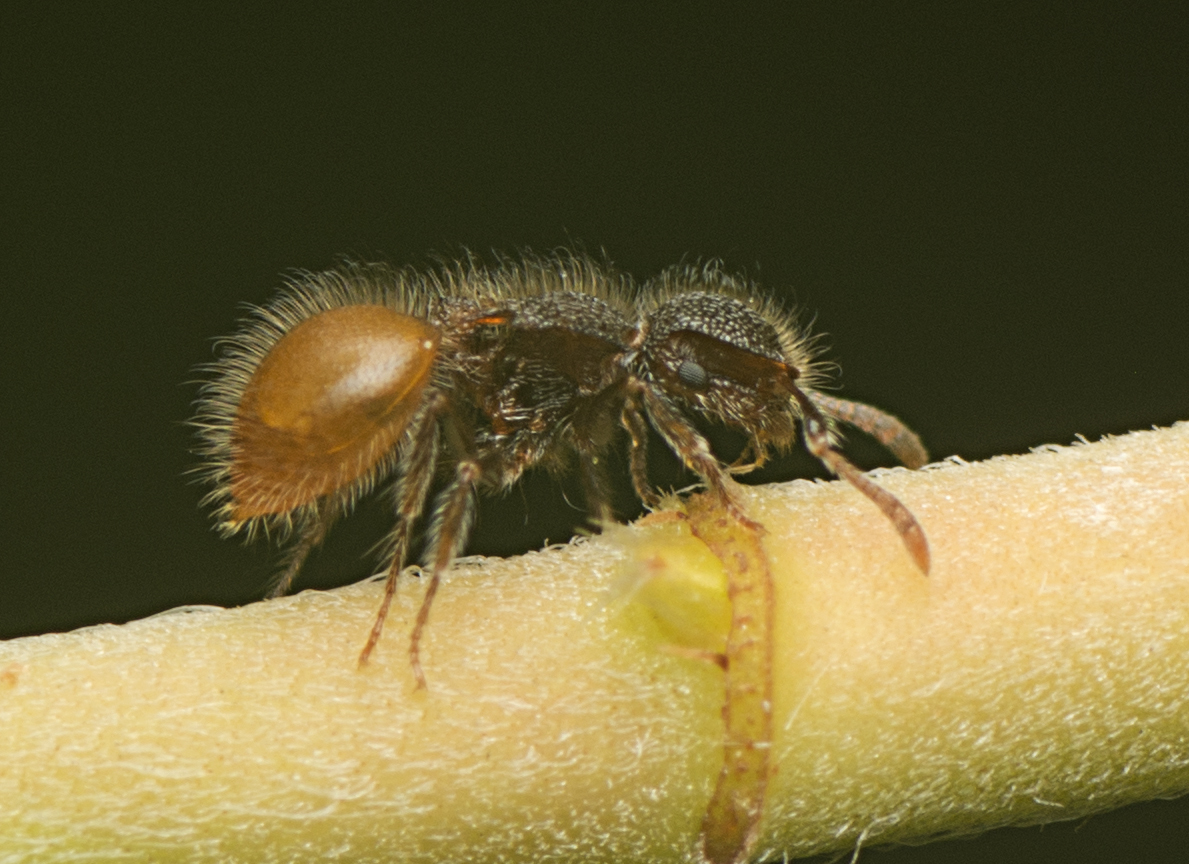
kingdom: Animalia
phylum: Arthropoda
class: Insecta
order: Hymenoptera
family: Formicidae
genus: Meranoplus
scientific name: Meranoplus hirsutus
